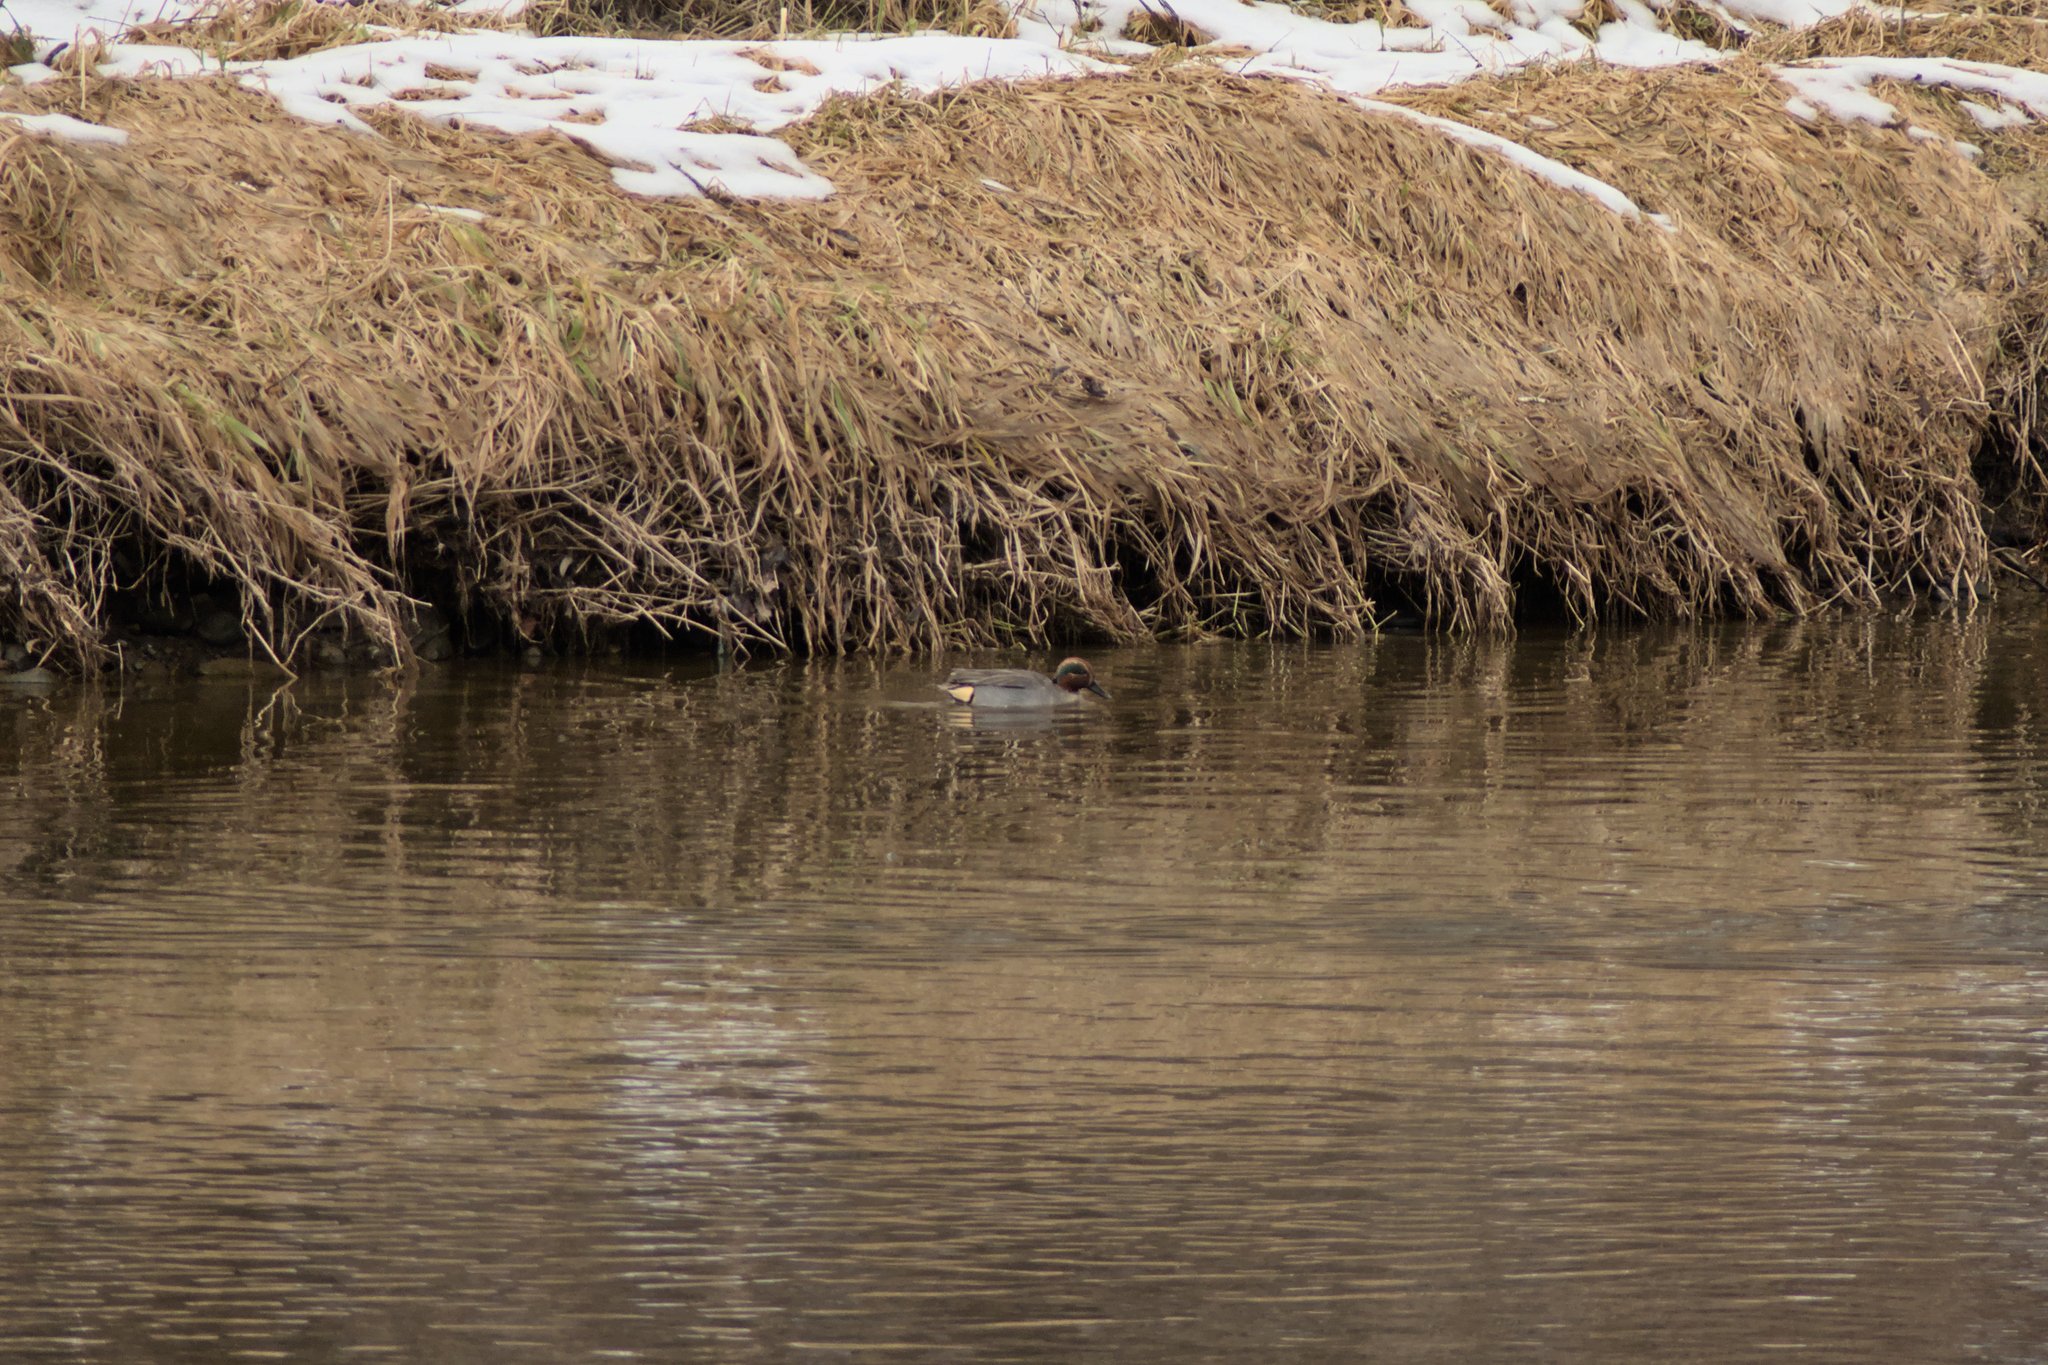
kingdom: Animalia
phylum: Chordata
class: Aves
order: Anseriformes
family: Anatidae
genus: Anas
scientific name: Anas crecca
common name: Eurasian teal
